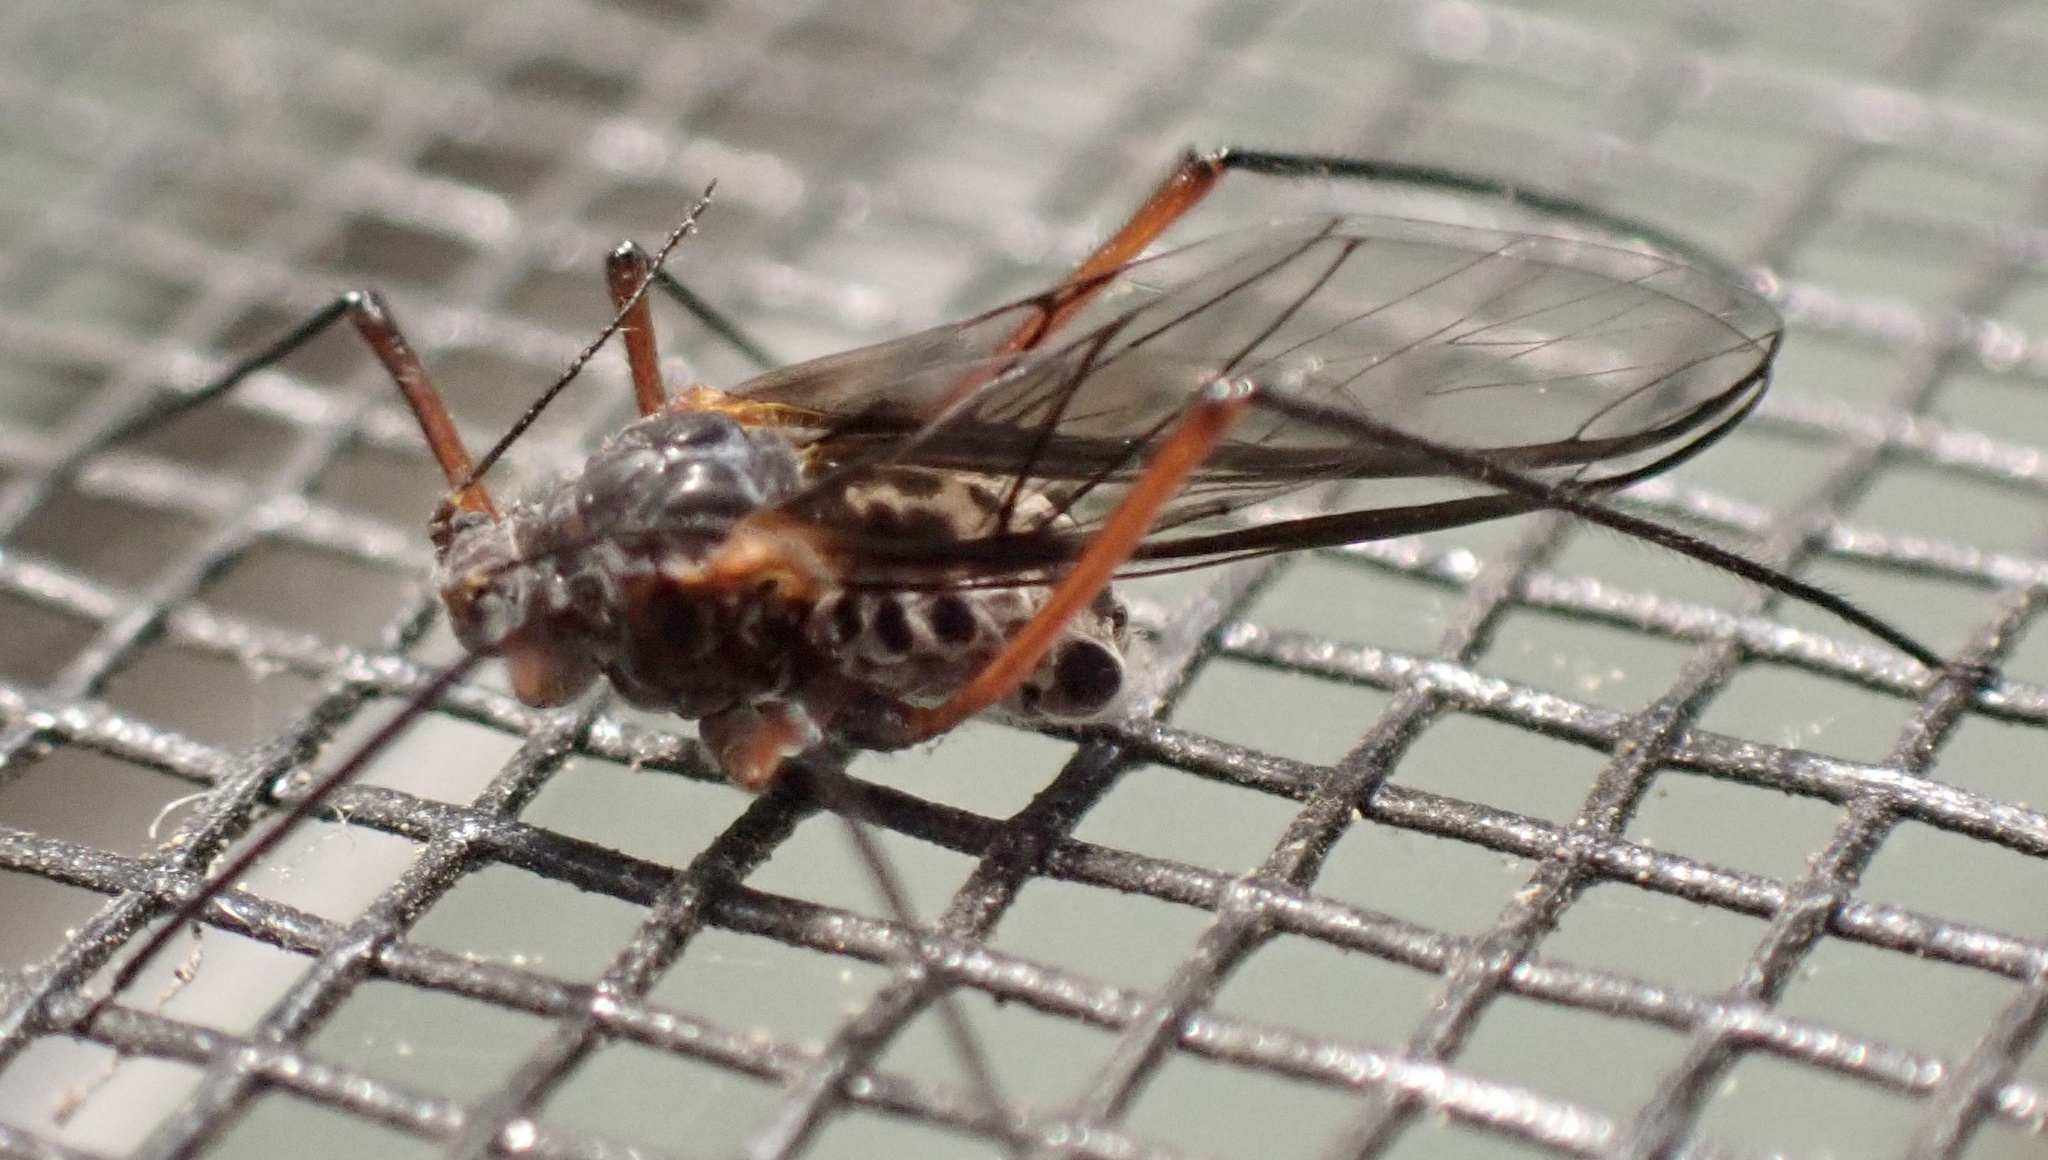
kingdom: Animalia
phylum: Arthropoda
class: Insecta
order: Hemiptera
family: Aphididae
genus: Longistigma
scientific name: Longistigma caryae
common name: Giant bark aphid
